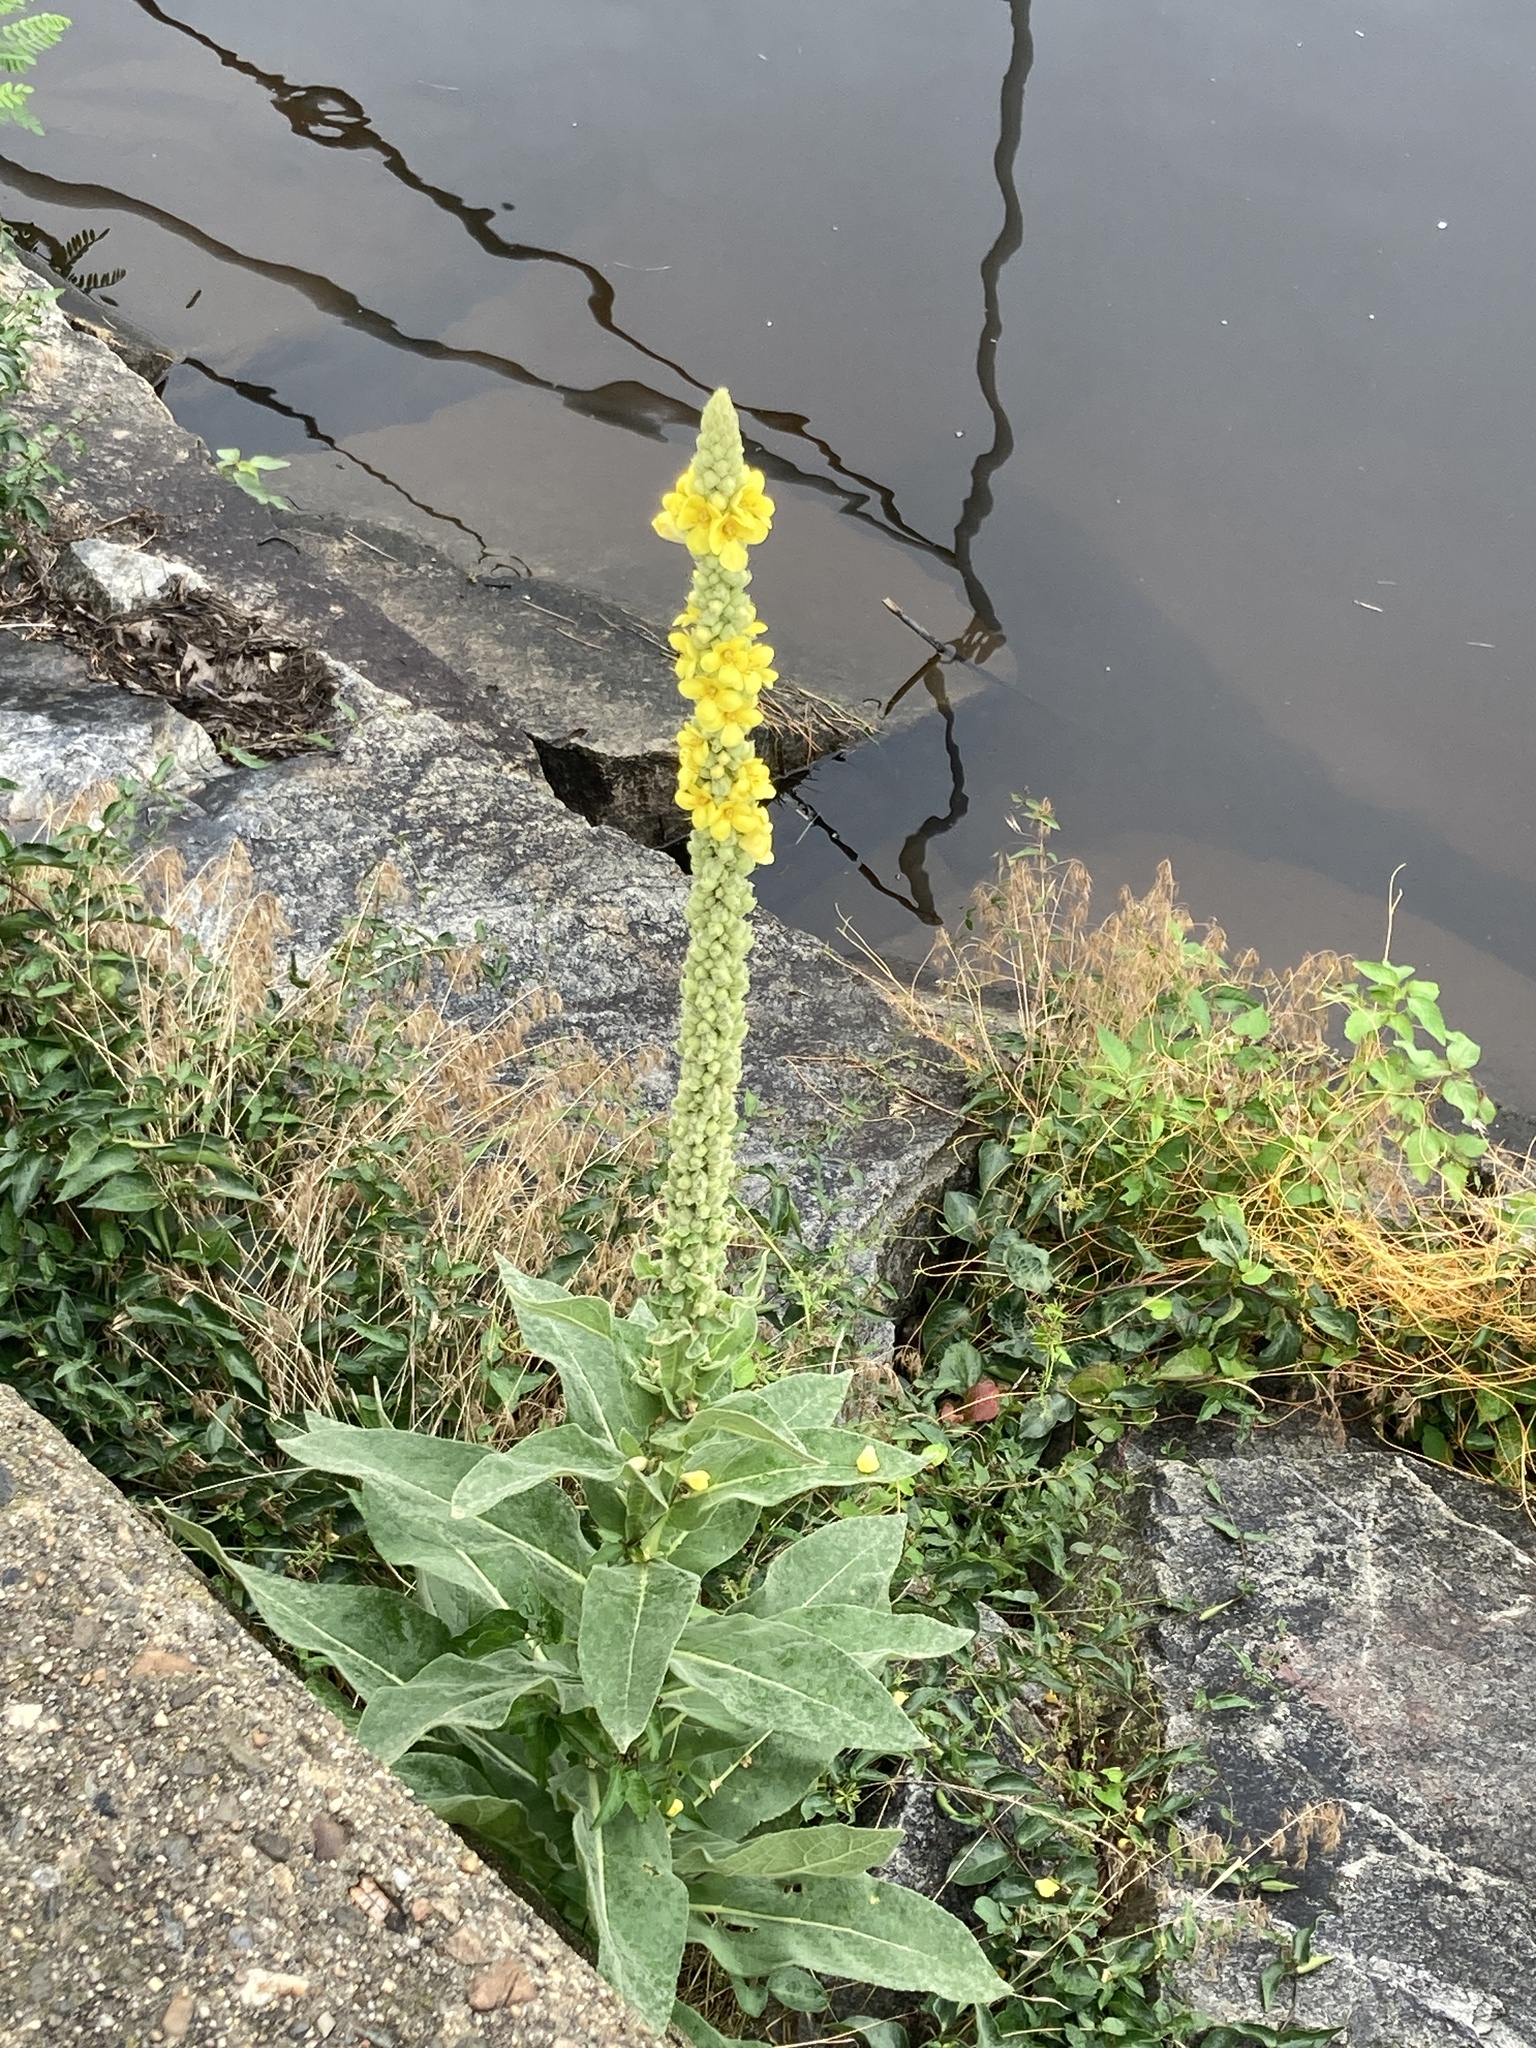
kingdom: Plantae
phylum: Tracheophyta
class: Magnoliopsida
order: Lamiales
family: Scrophulariaceae
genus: Verbascum
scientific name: Verbascum thapsus
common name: Common mullein
